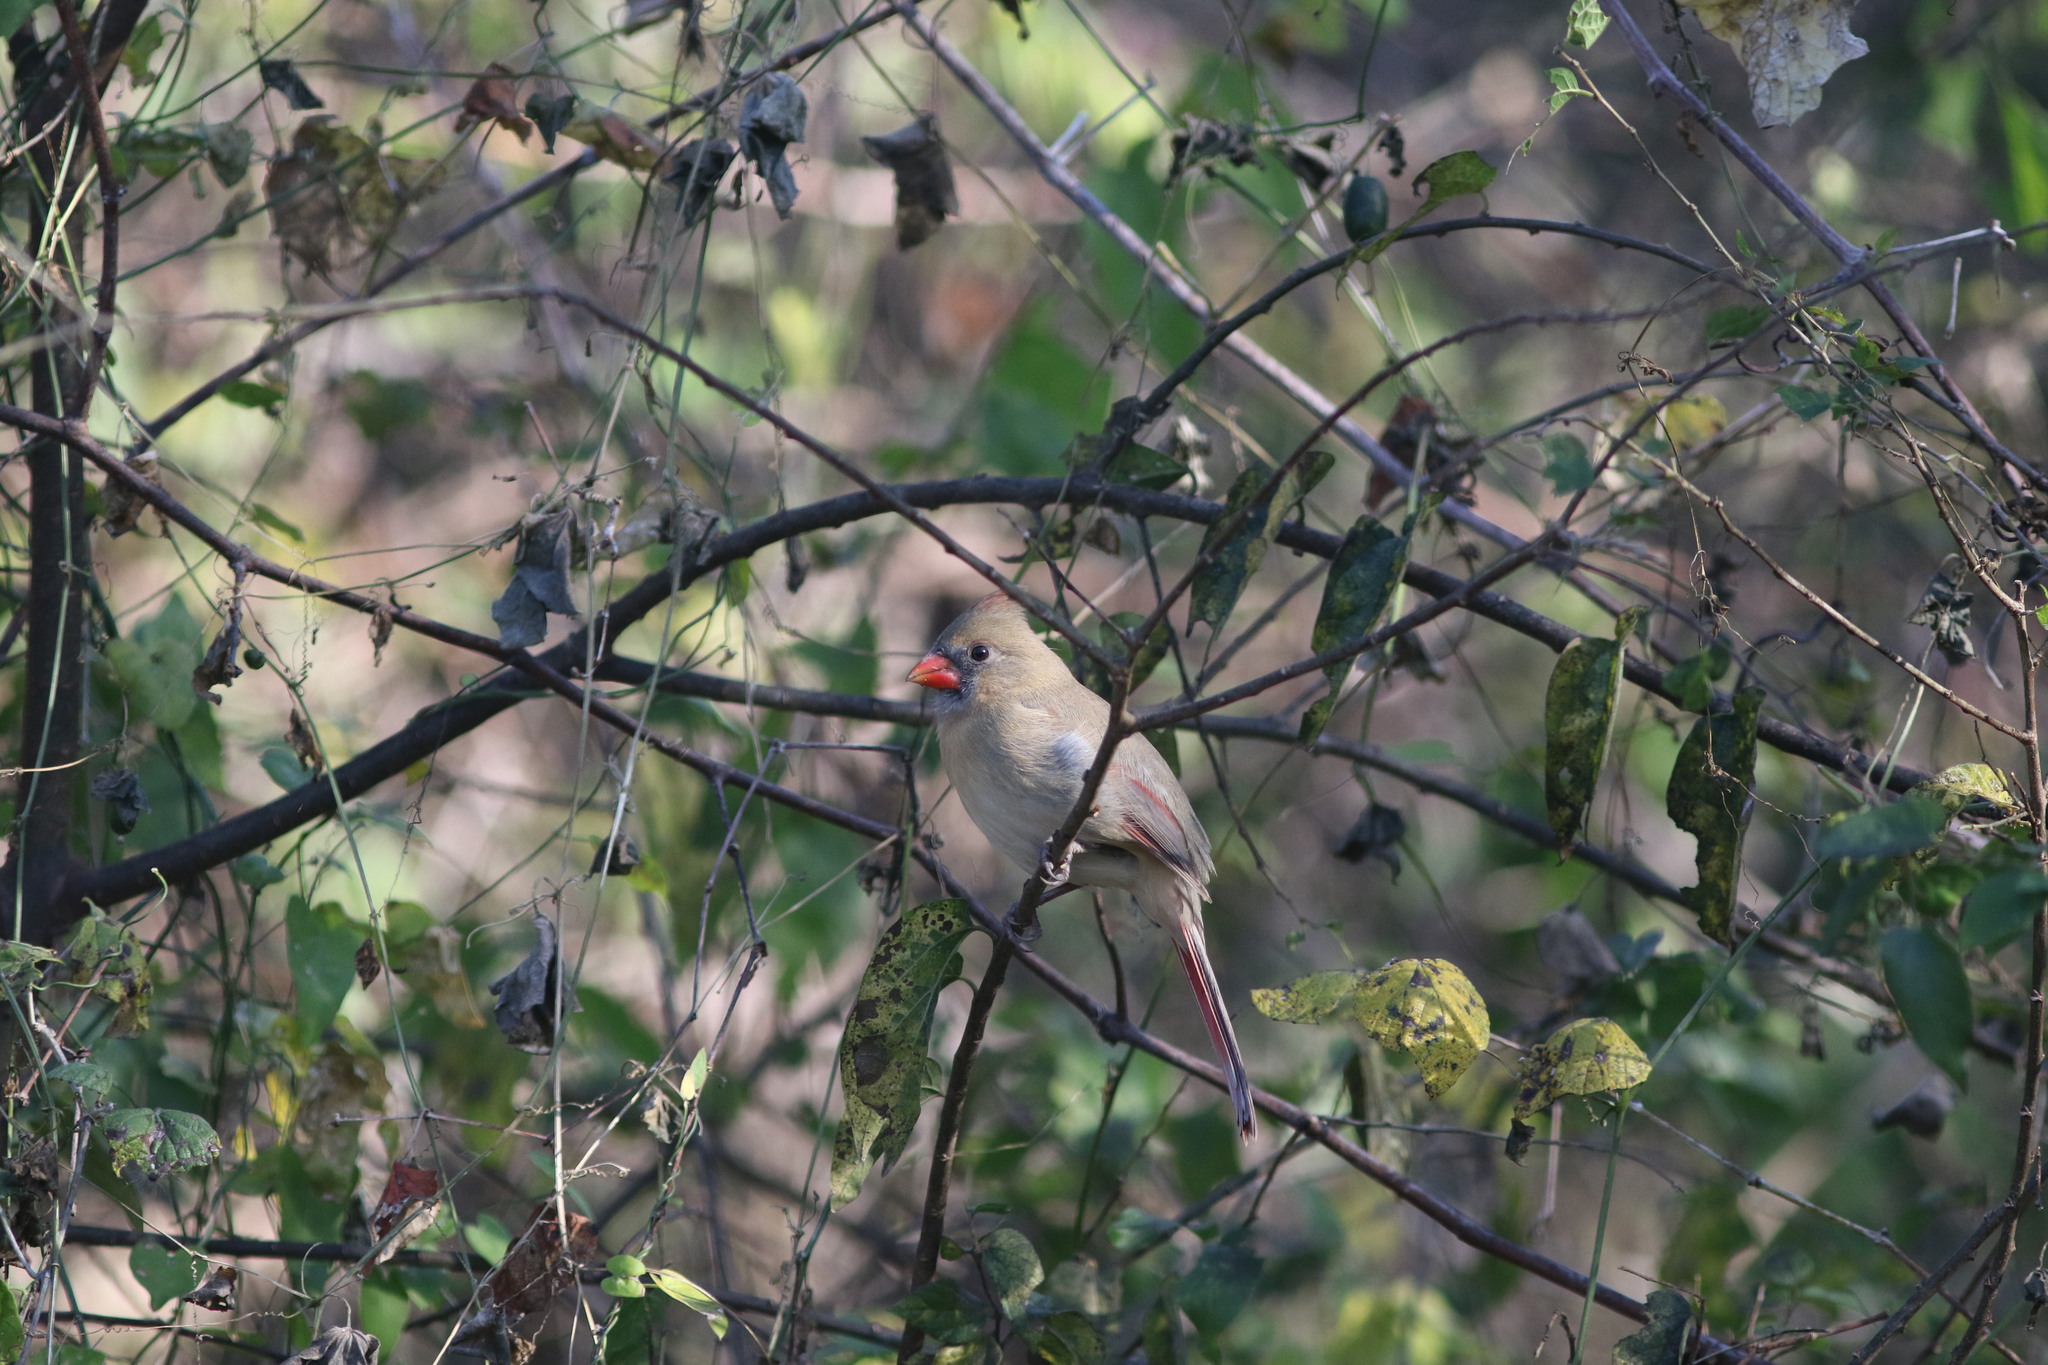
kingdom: Animalia
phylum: Chordata
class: Aves
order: Passeriformes
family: Cardinalidae
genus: Cardinalis
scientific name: Cardinalis cardinalis
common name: Northern cardinal
